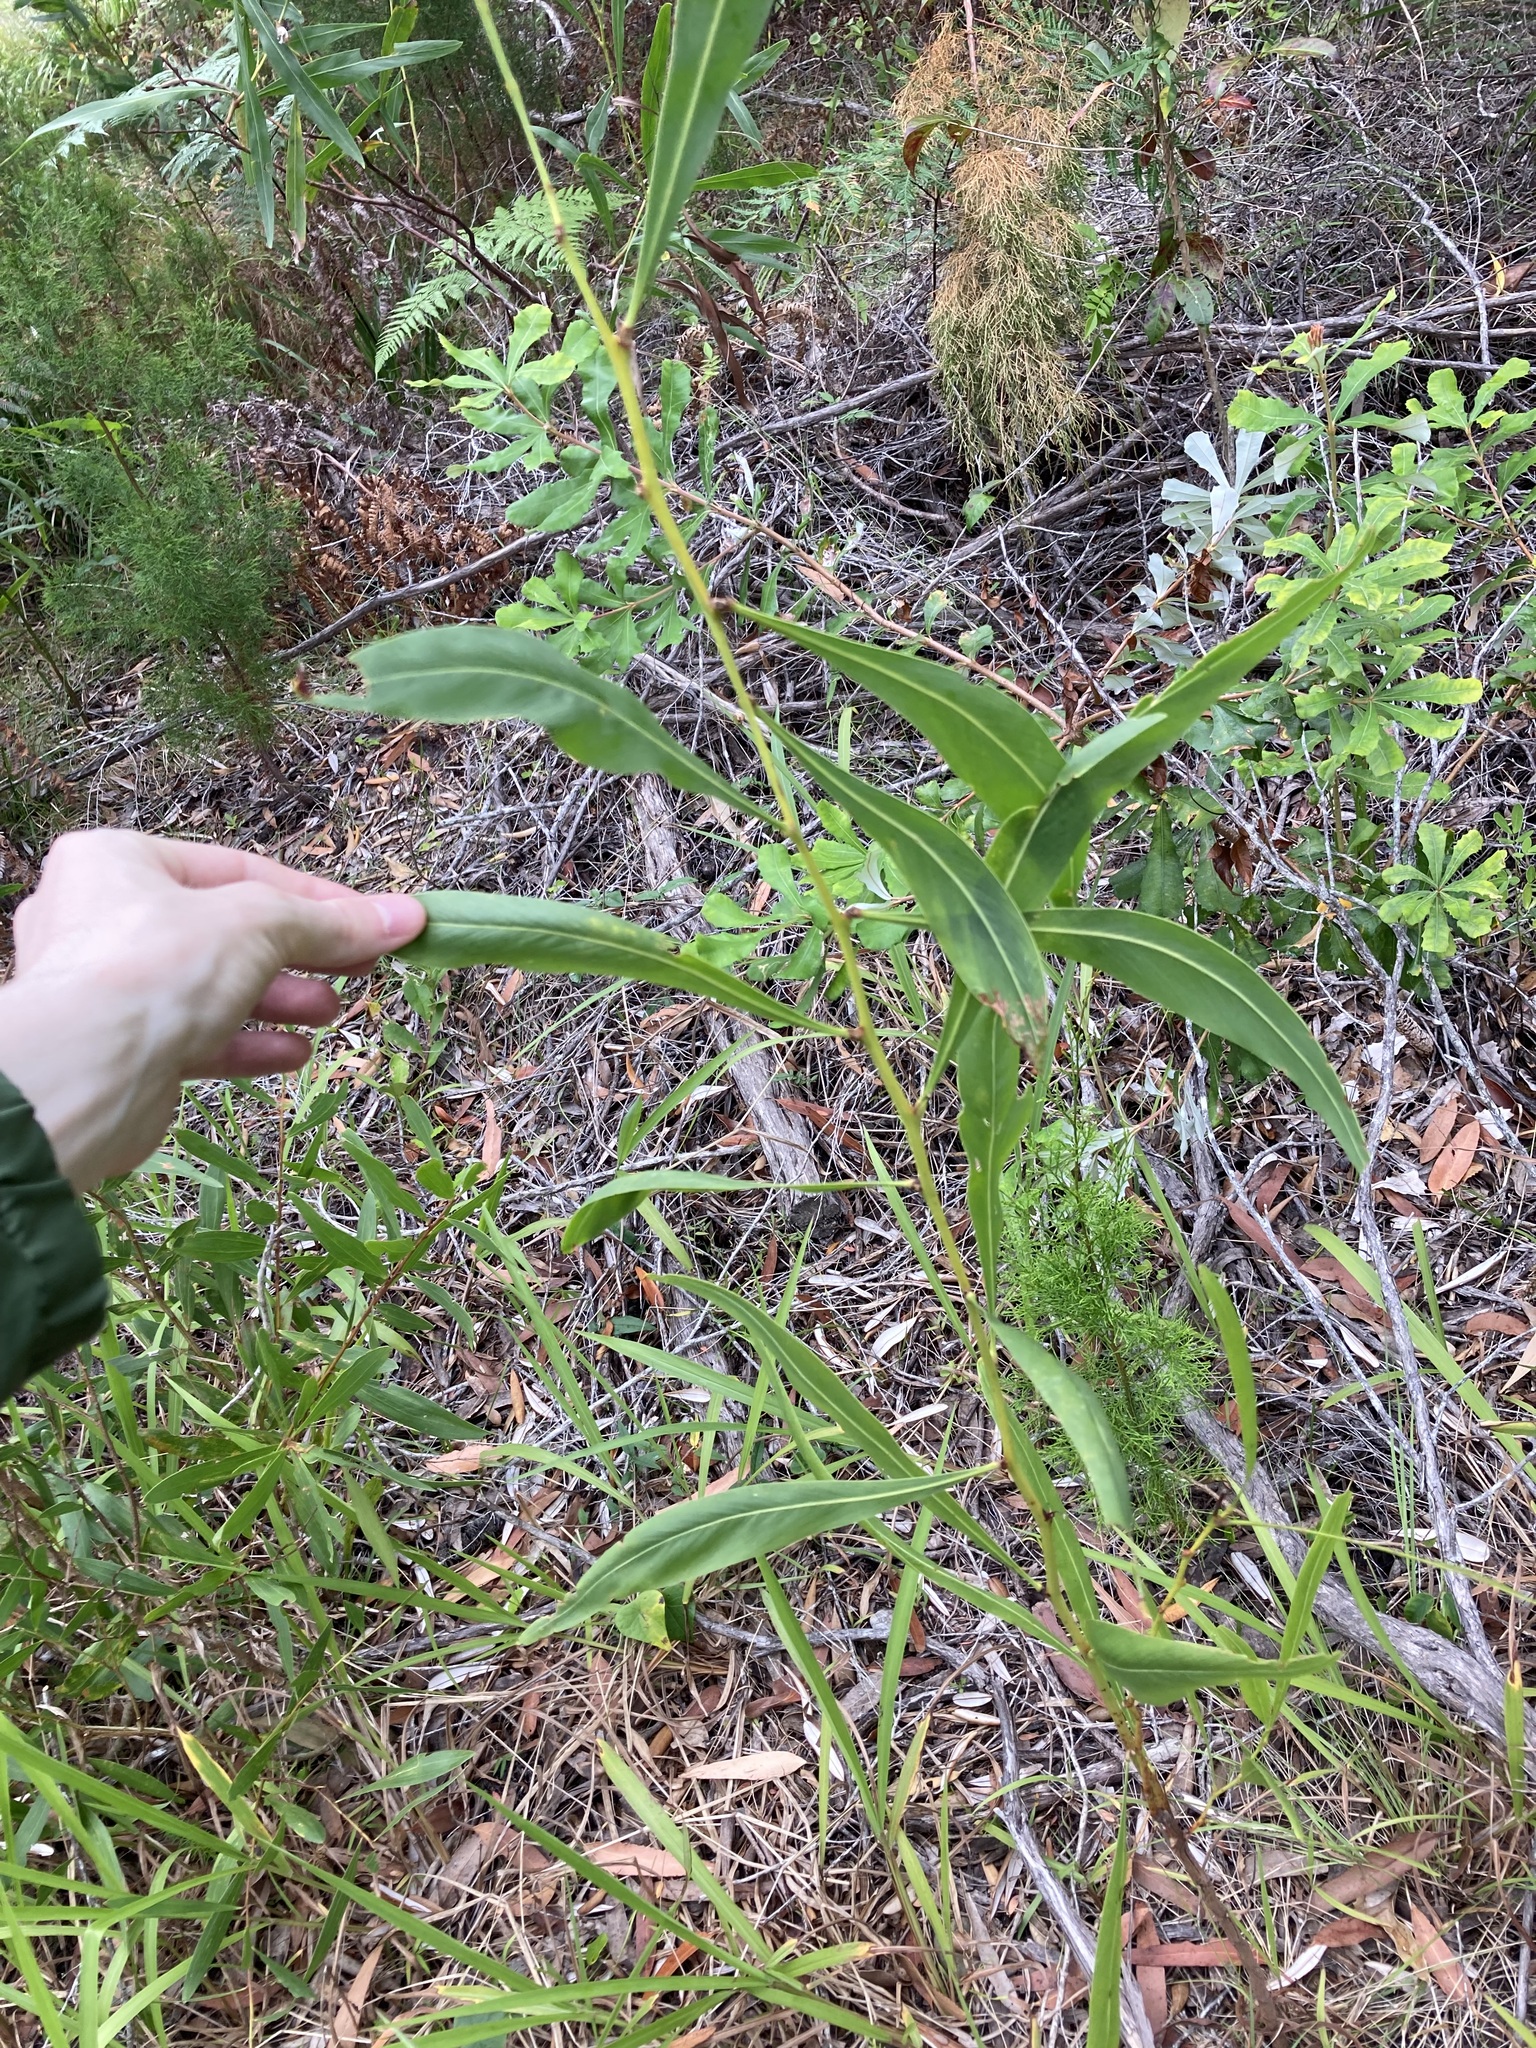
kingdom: Plantae
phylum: Tracheophyta
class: Magnoliopsida
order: Fabales
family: Fabaceae
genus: Acacia
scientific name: Acacia saligna
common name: Orange wattle
